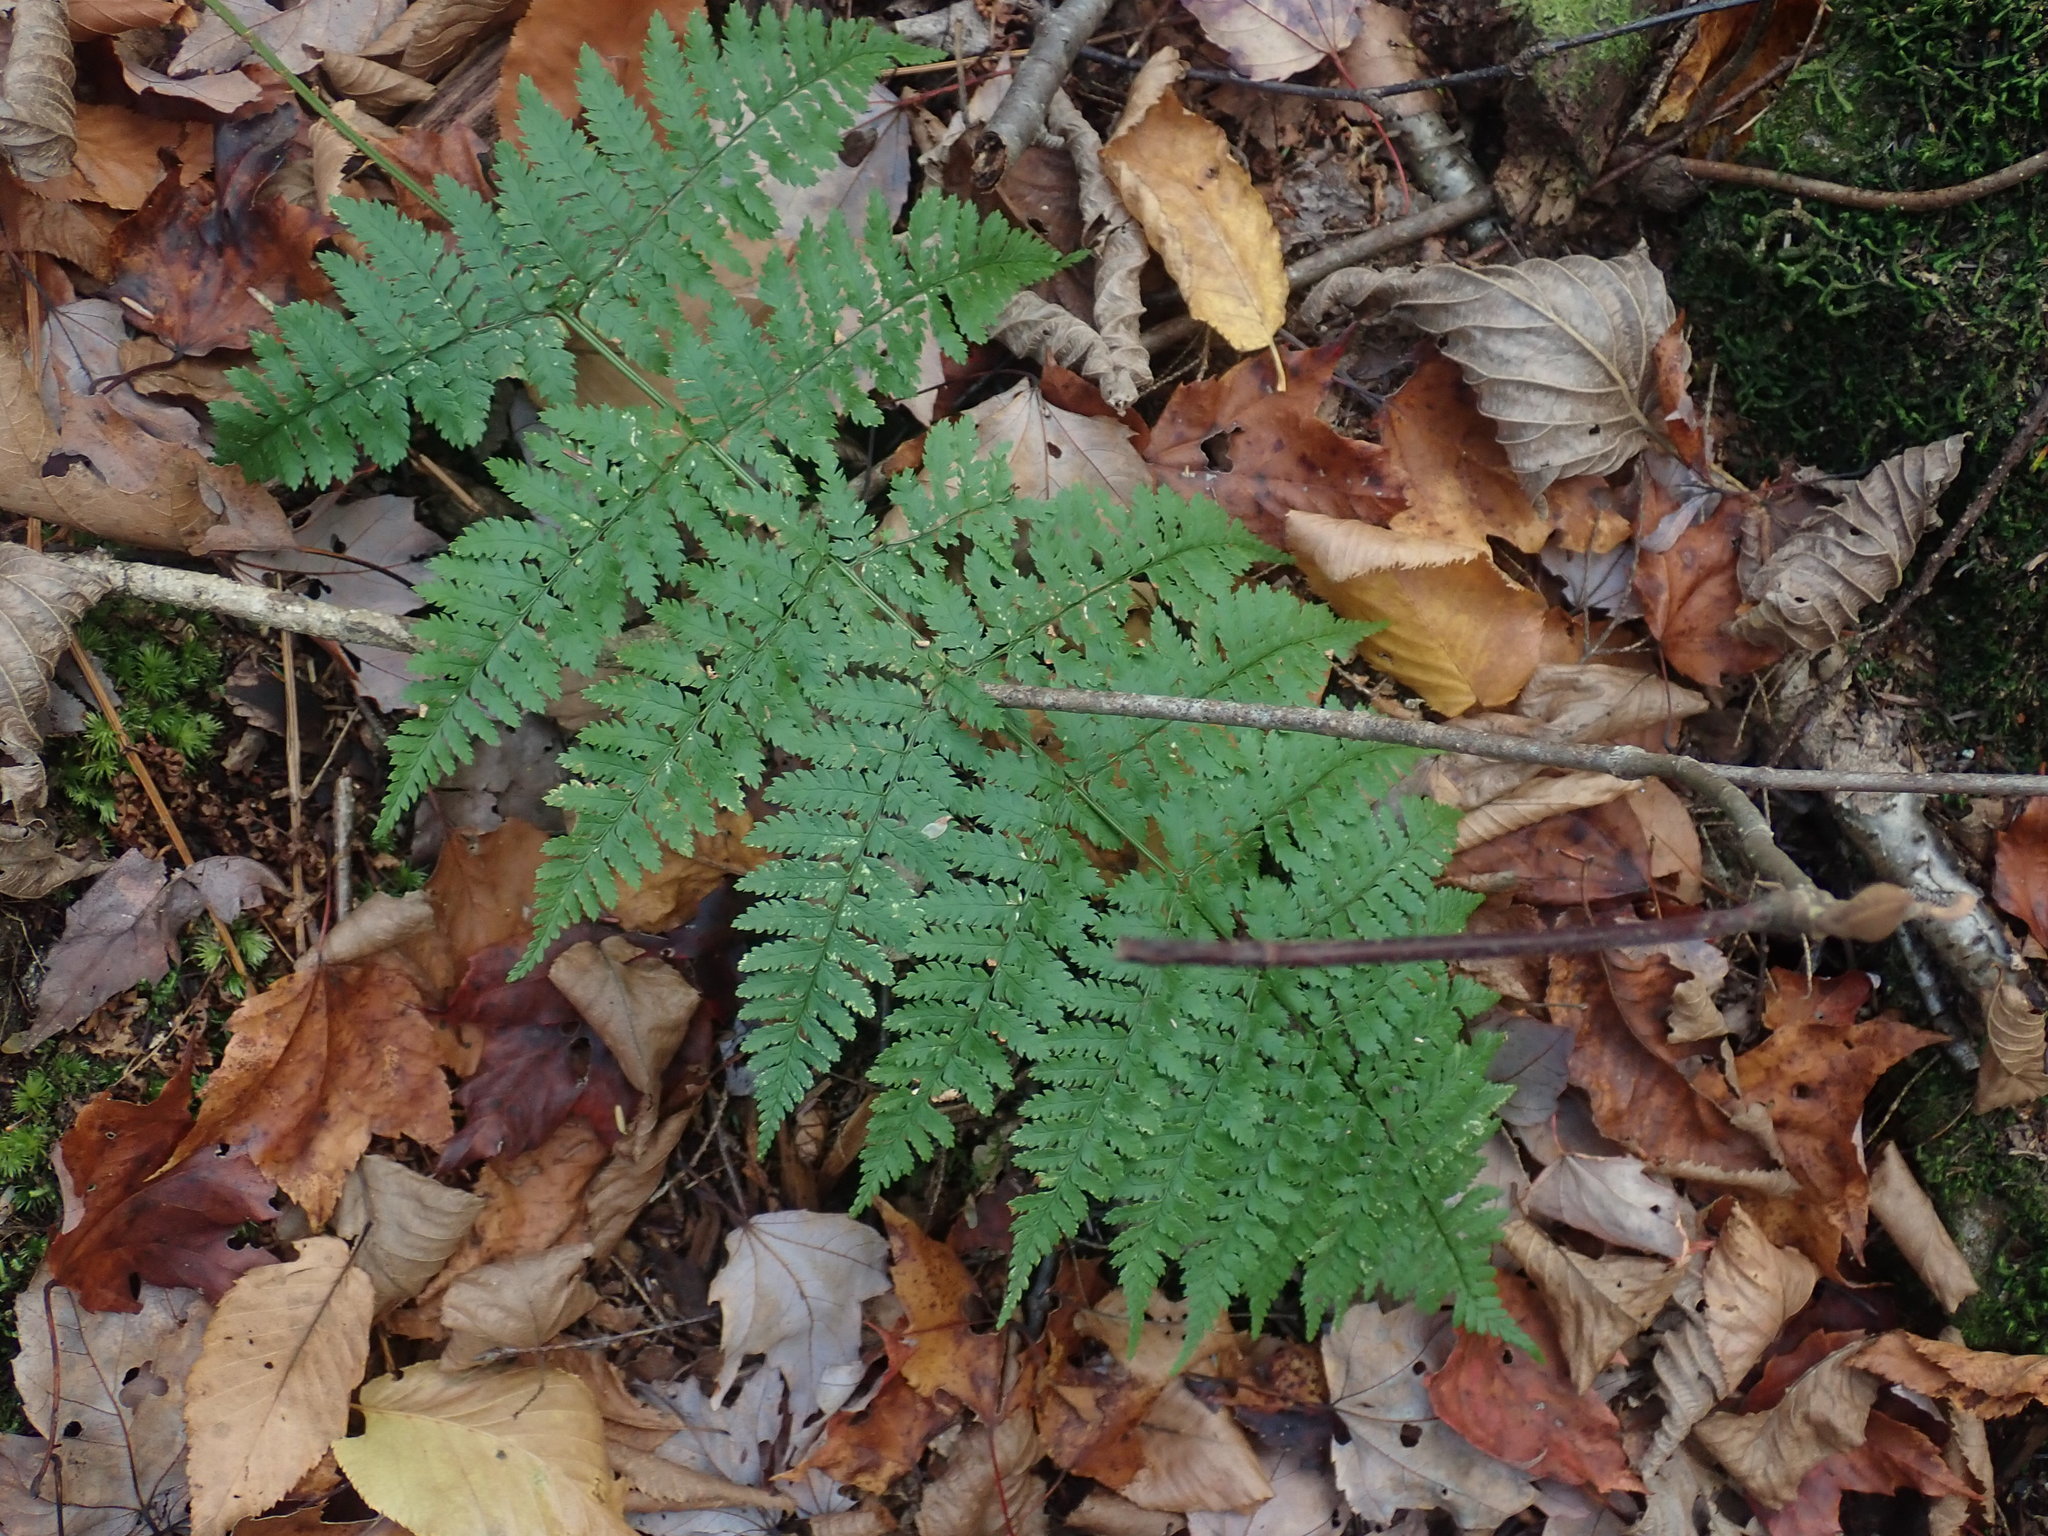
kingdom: Plantae
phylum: Tracheophyta
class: Polypodiopsida
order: Polypodiales
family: Dryopteridaceae
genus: Dryopteris
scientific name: Dryopteris intermedia
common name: Evergreen wood fern
